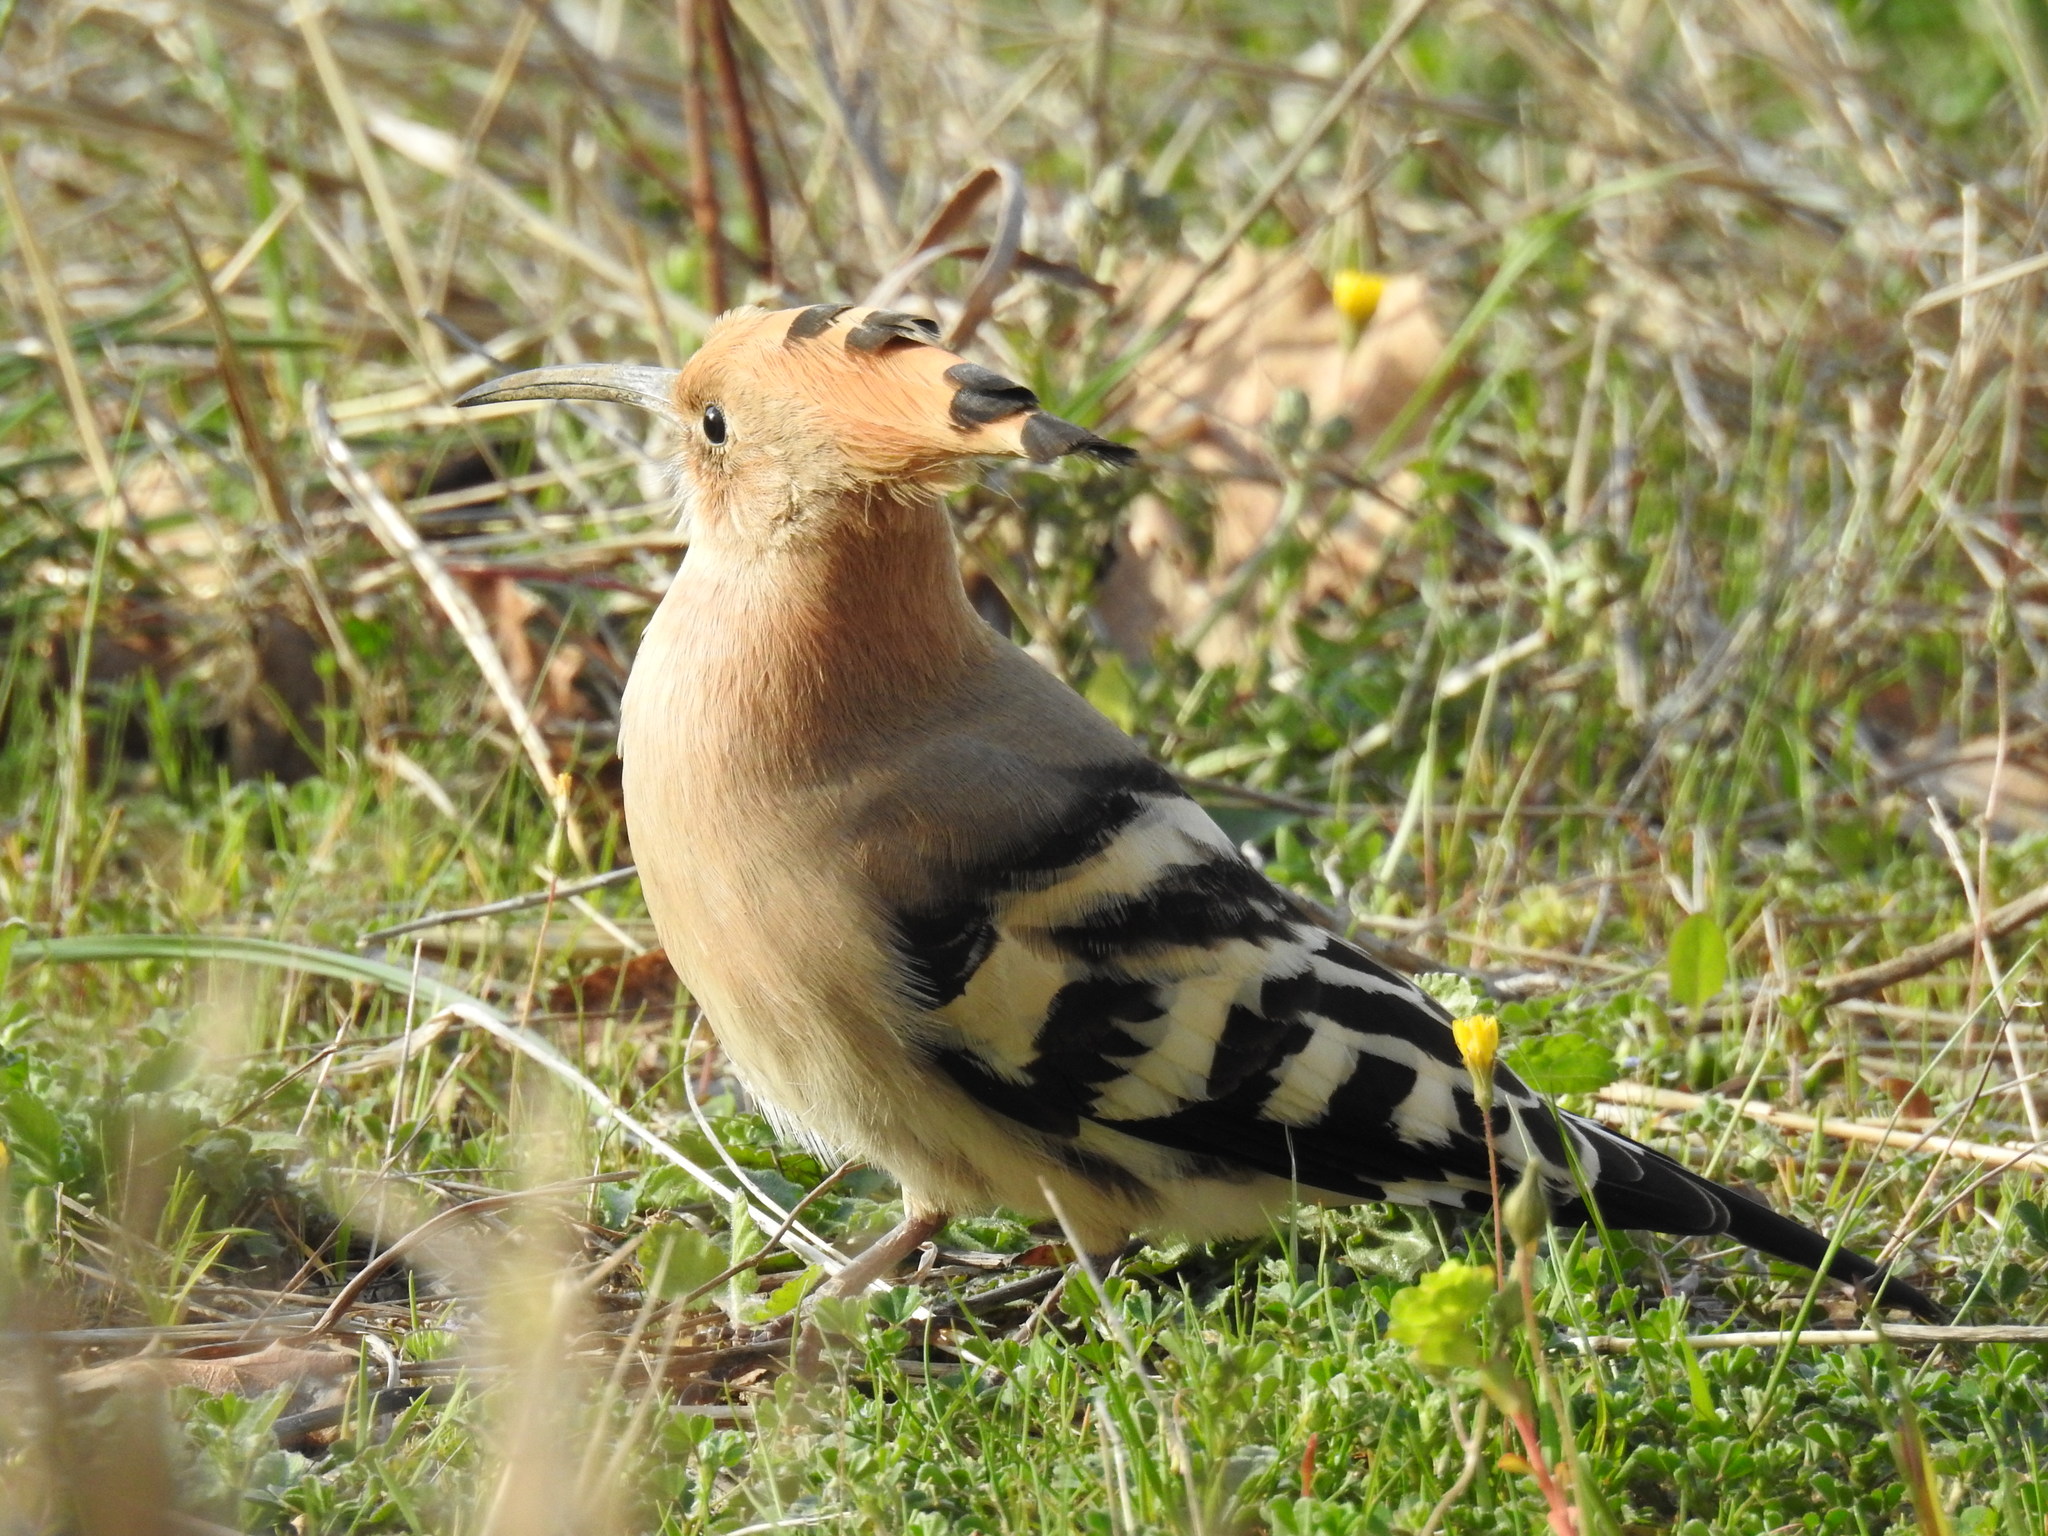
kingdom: Animalia
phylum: Chordata
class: Aves
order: Bucerotiformes
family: Upupidae
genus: Upupa
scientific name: Upupa epops
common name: Eurasian hoopoe
